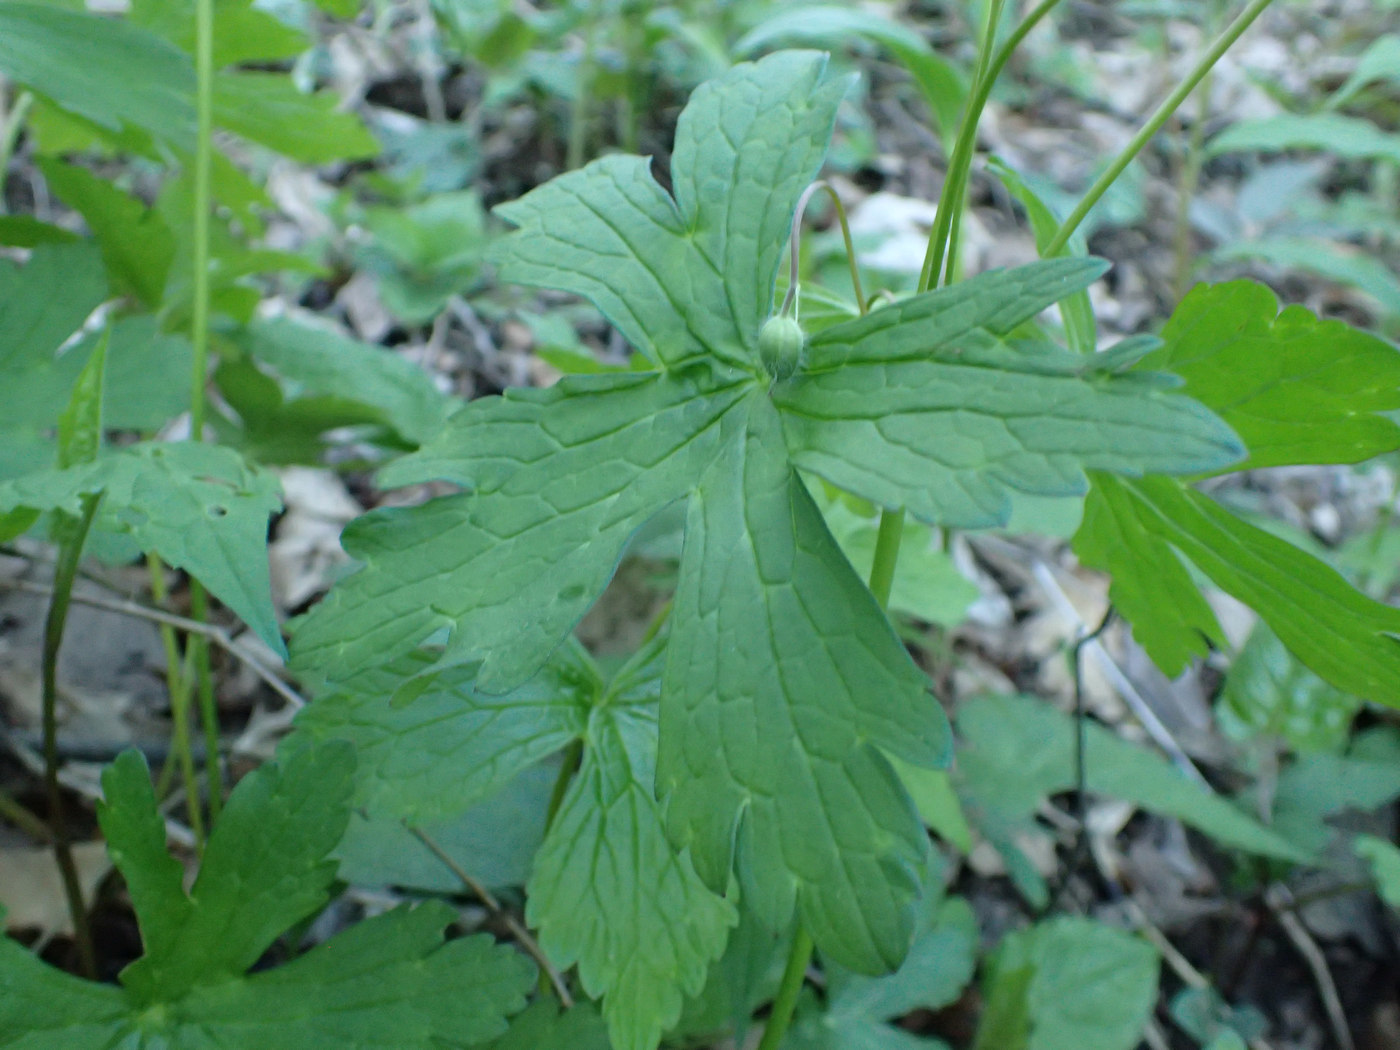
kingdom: Plantae
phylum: Tracheophyta
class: Magnoliopsida
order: Geraniales
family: Geraniaceae
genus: Geranium
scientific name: Geranium maculatum
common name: Spotted geranium
